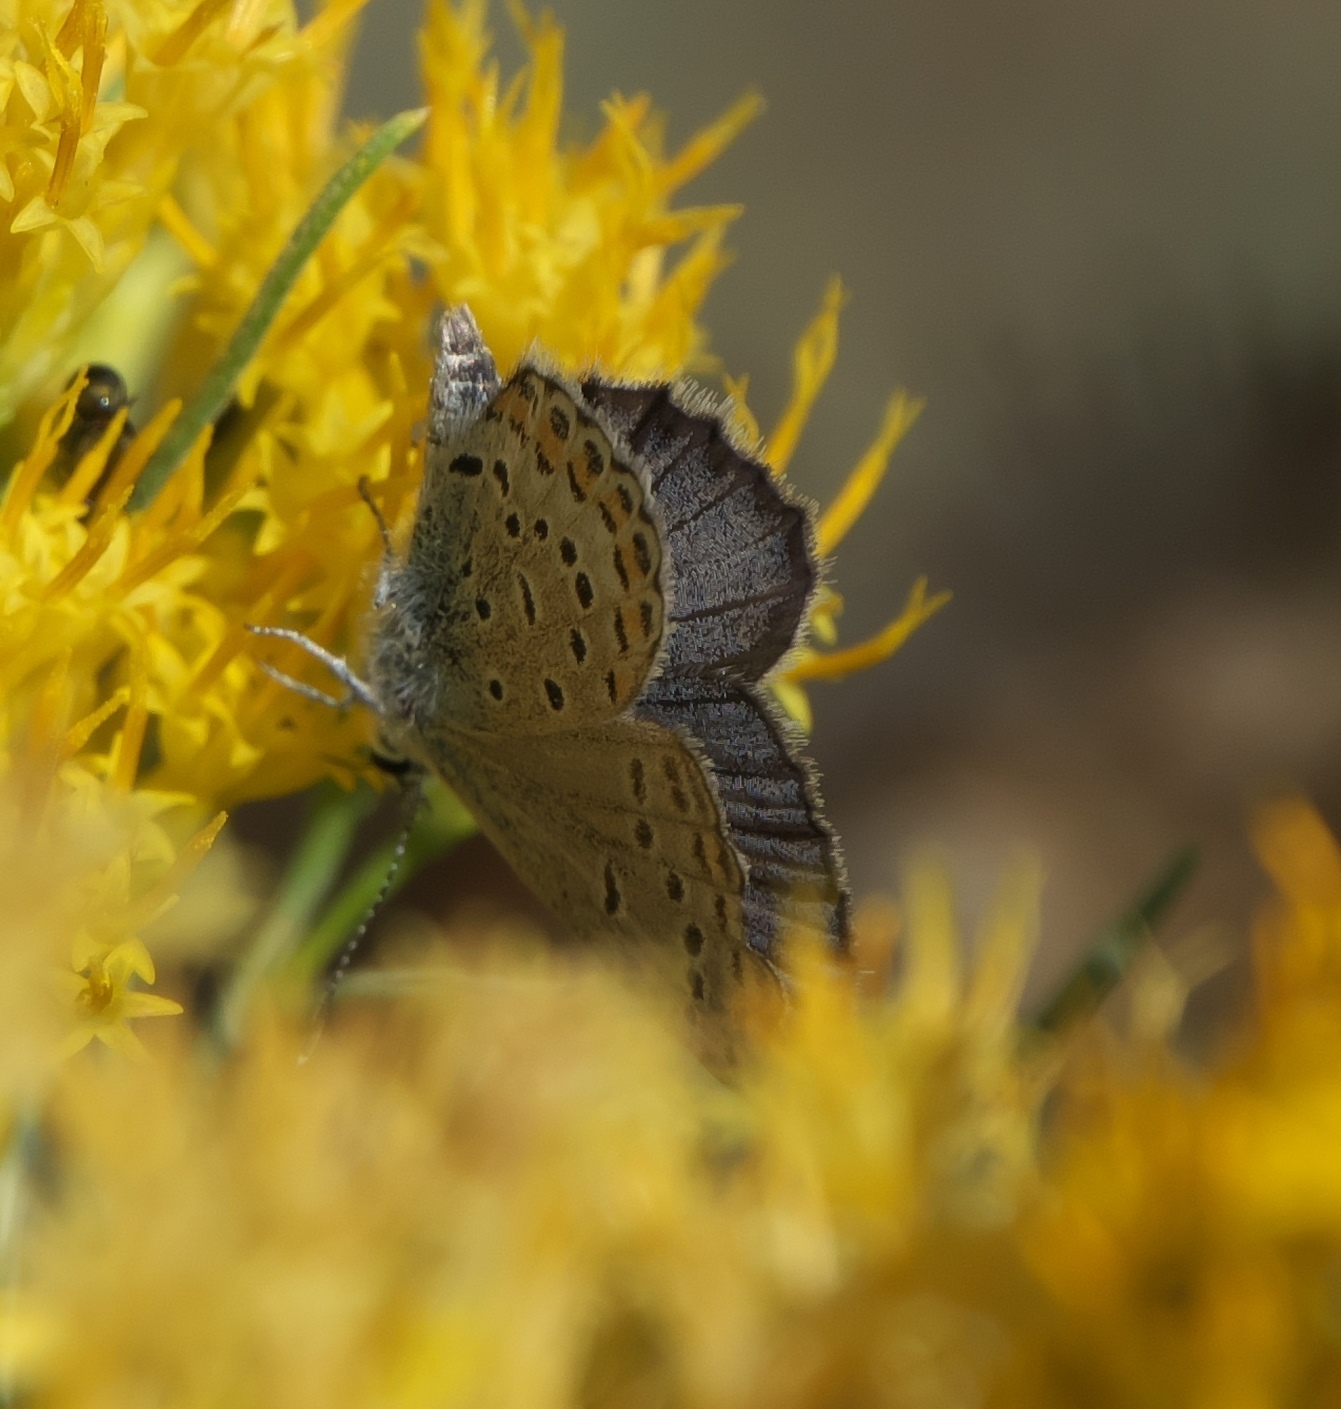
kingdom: Animalia
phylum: Arthropoda
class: Insecta
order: Lepidoptera
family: Lycaenidae
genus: Lycaeides
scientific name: Lycaeides melissa
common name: Melissa blue
